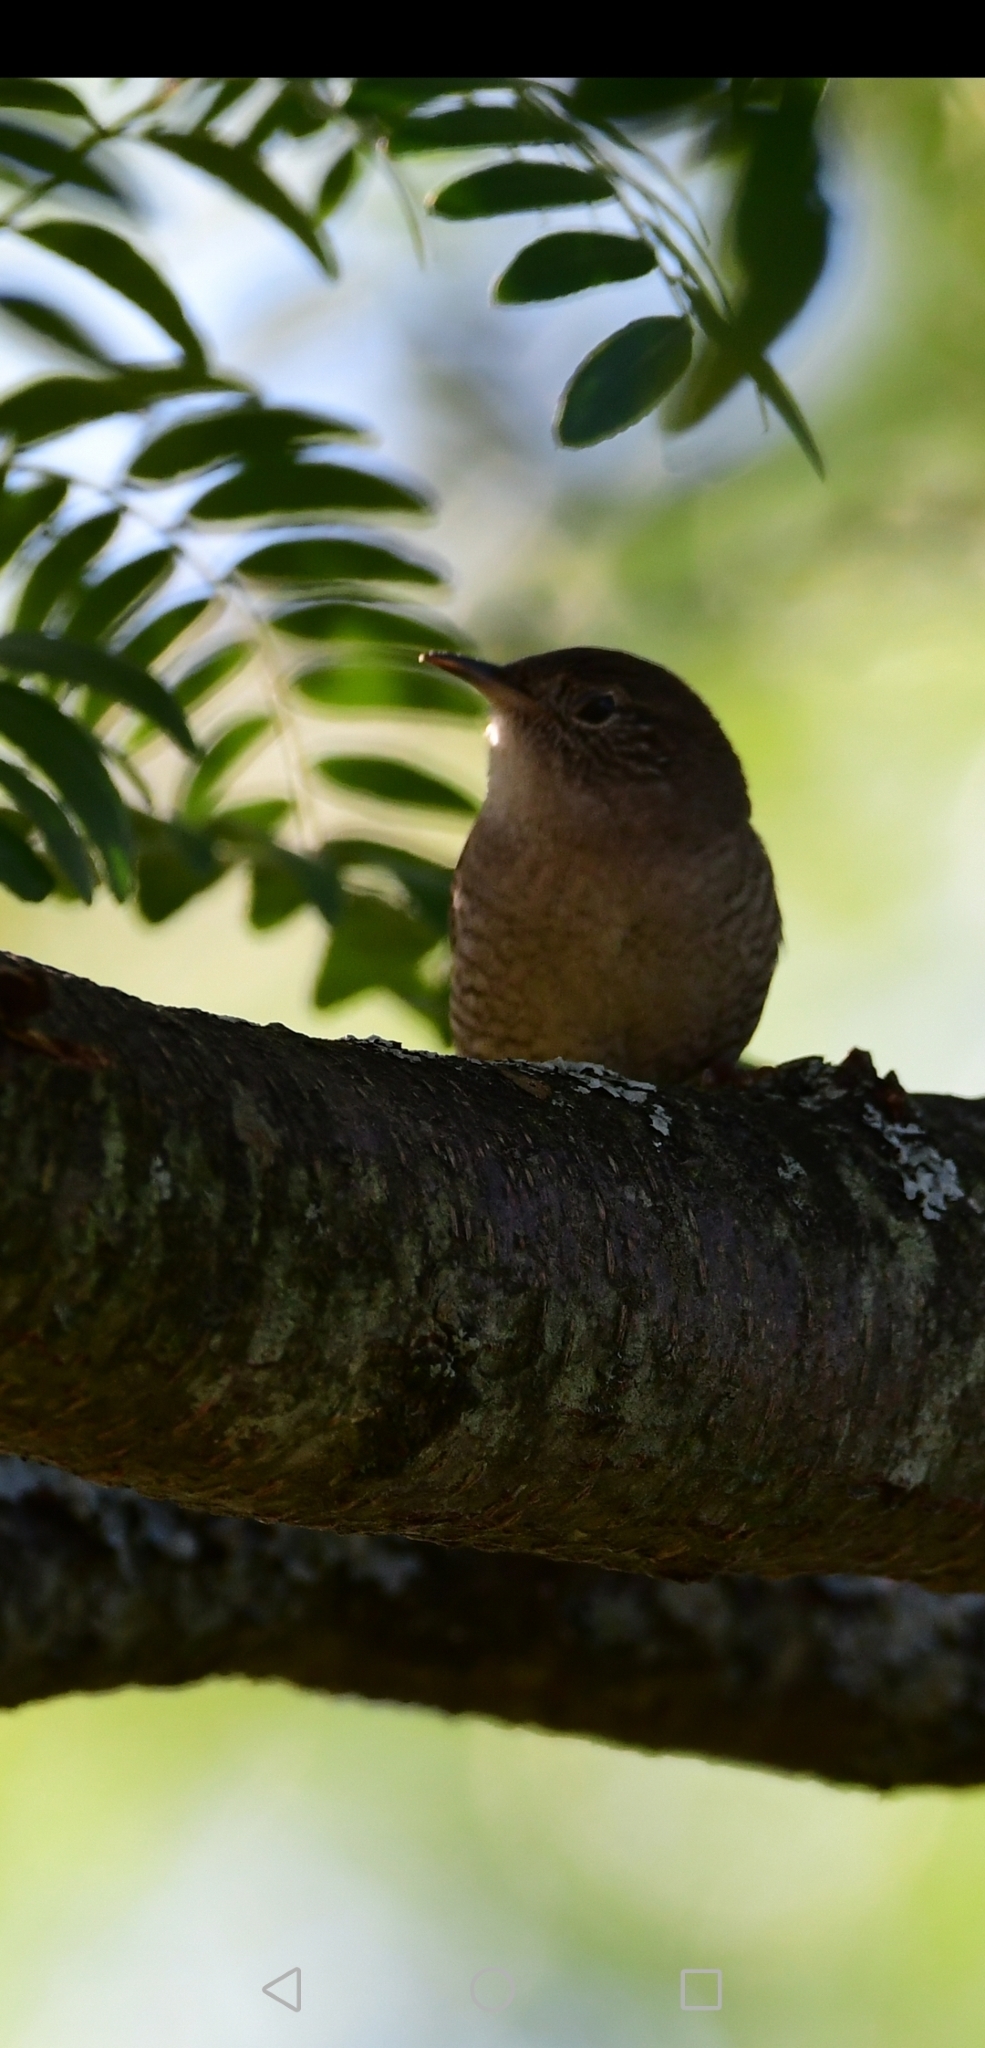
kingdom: Animalia
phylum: Chordata
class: Aves
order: Passeriformes
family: Troglodytidae
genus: Troglodytes
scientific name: Troglodytes aedon
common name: House wren
